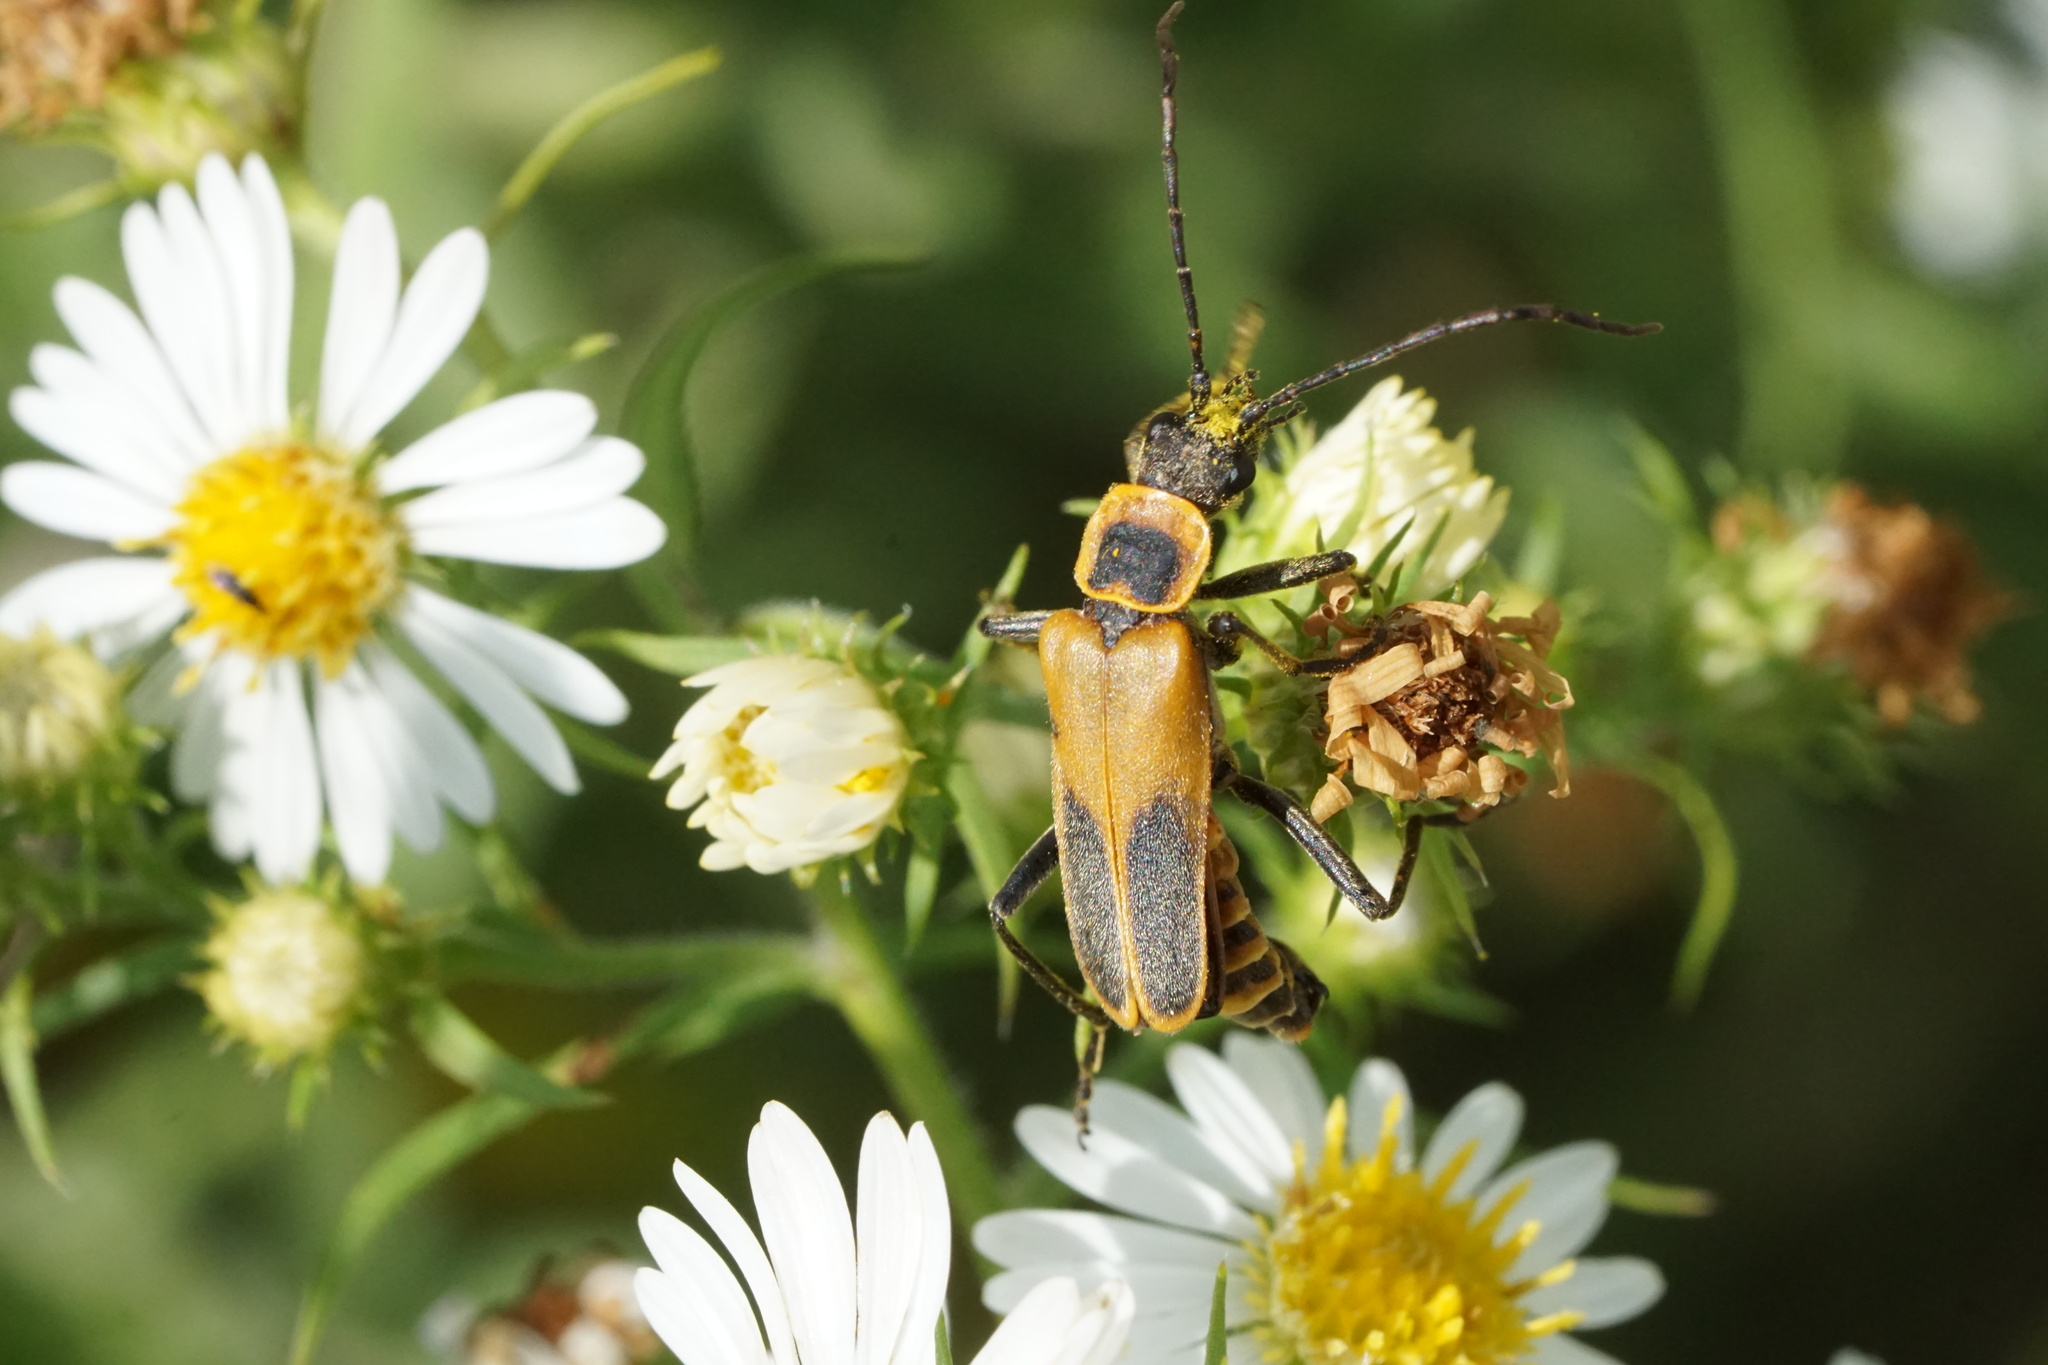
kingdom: Animalia
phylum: Arthropoda
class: Insecta
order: Coleoptera
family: Cantharidae
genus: Chauliognathus
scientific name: Chauliognathus pensylvanicus
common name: Goldenrod soldier beetle
